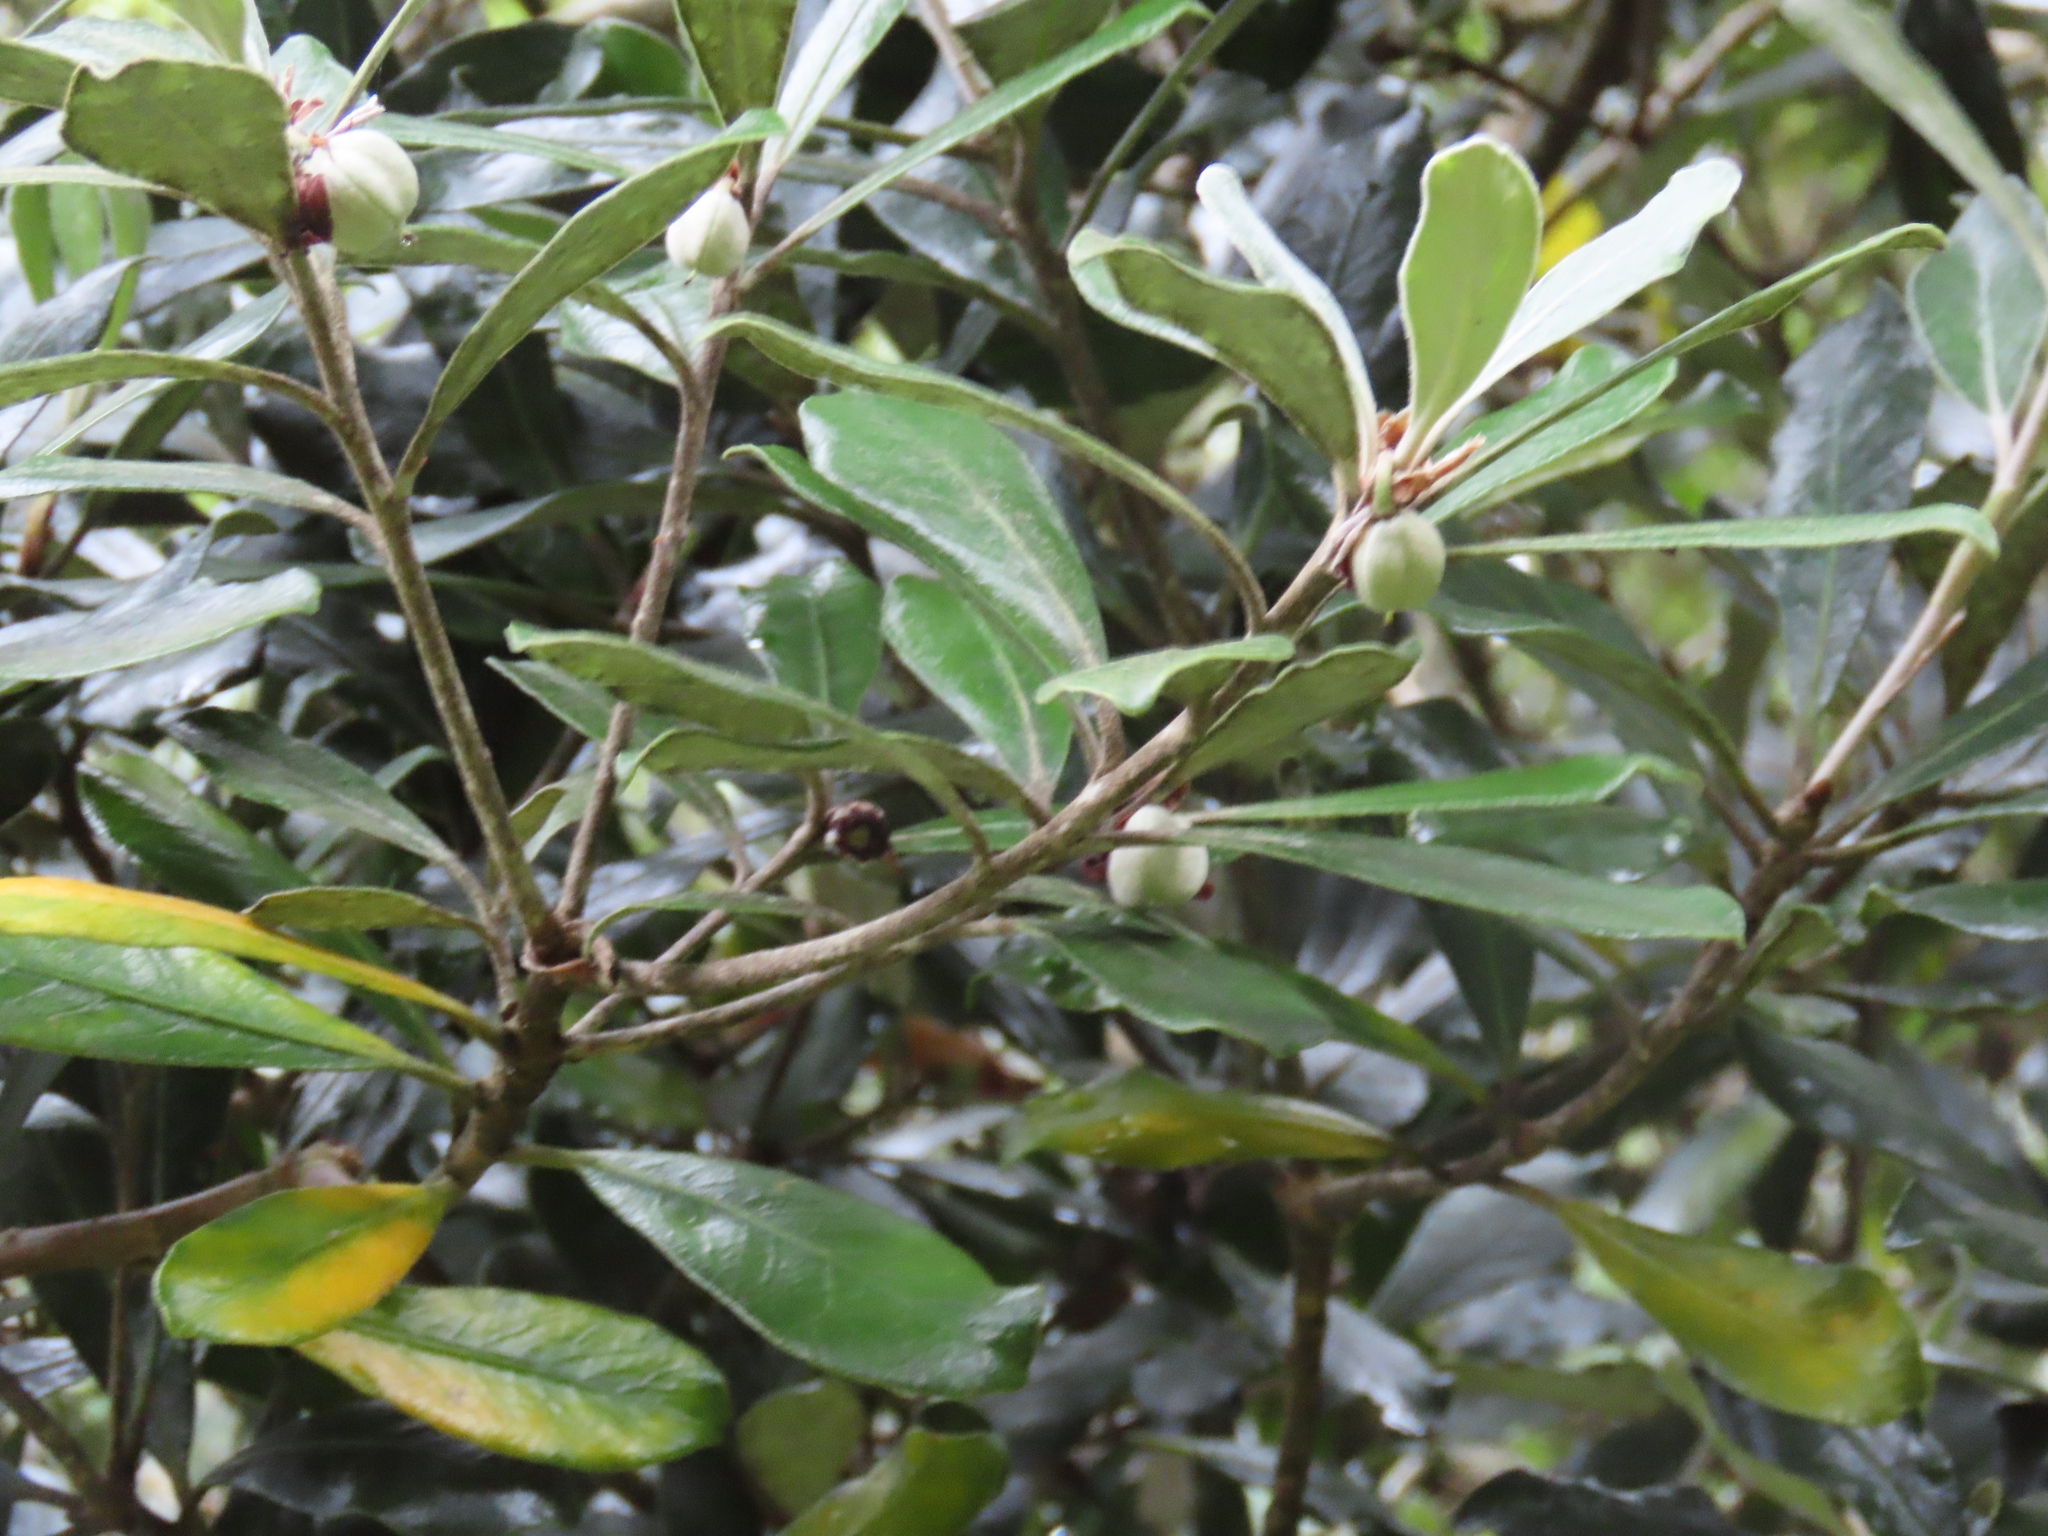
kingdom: Plantae
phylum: Tracheophyta
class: Magnoliopsida
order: Apiales
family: Pittosporaceae
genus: Pittosporum
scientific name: Pittosporum crassifolium
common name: Karo
